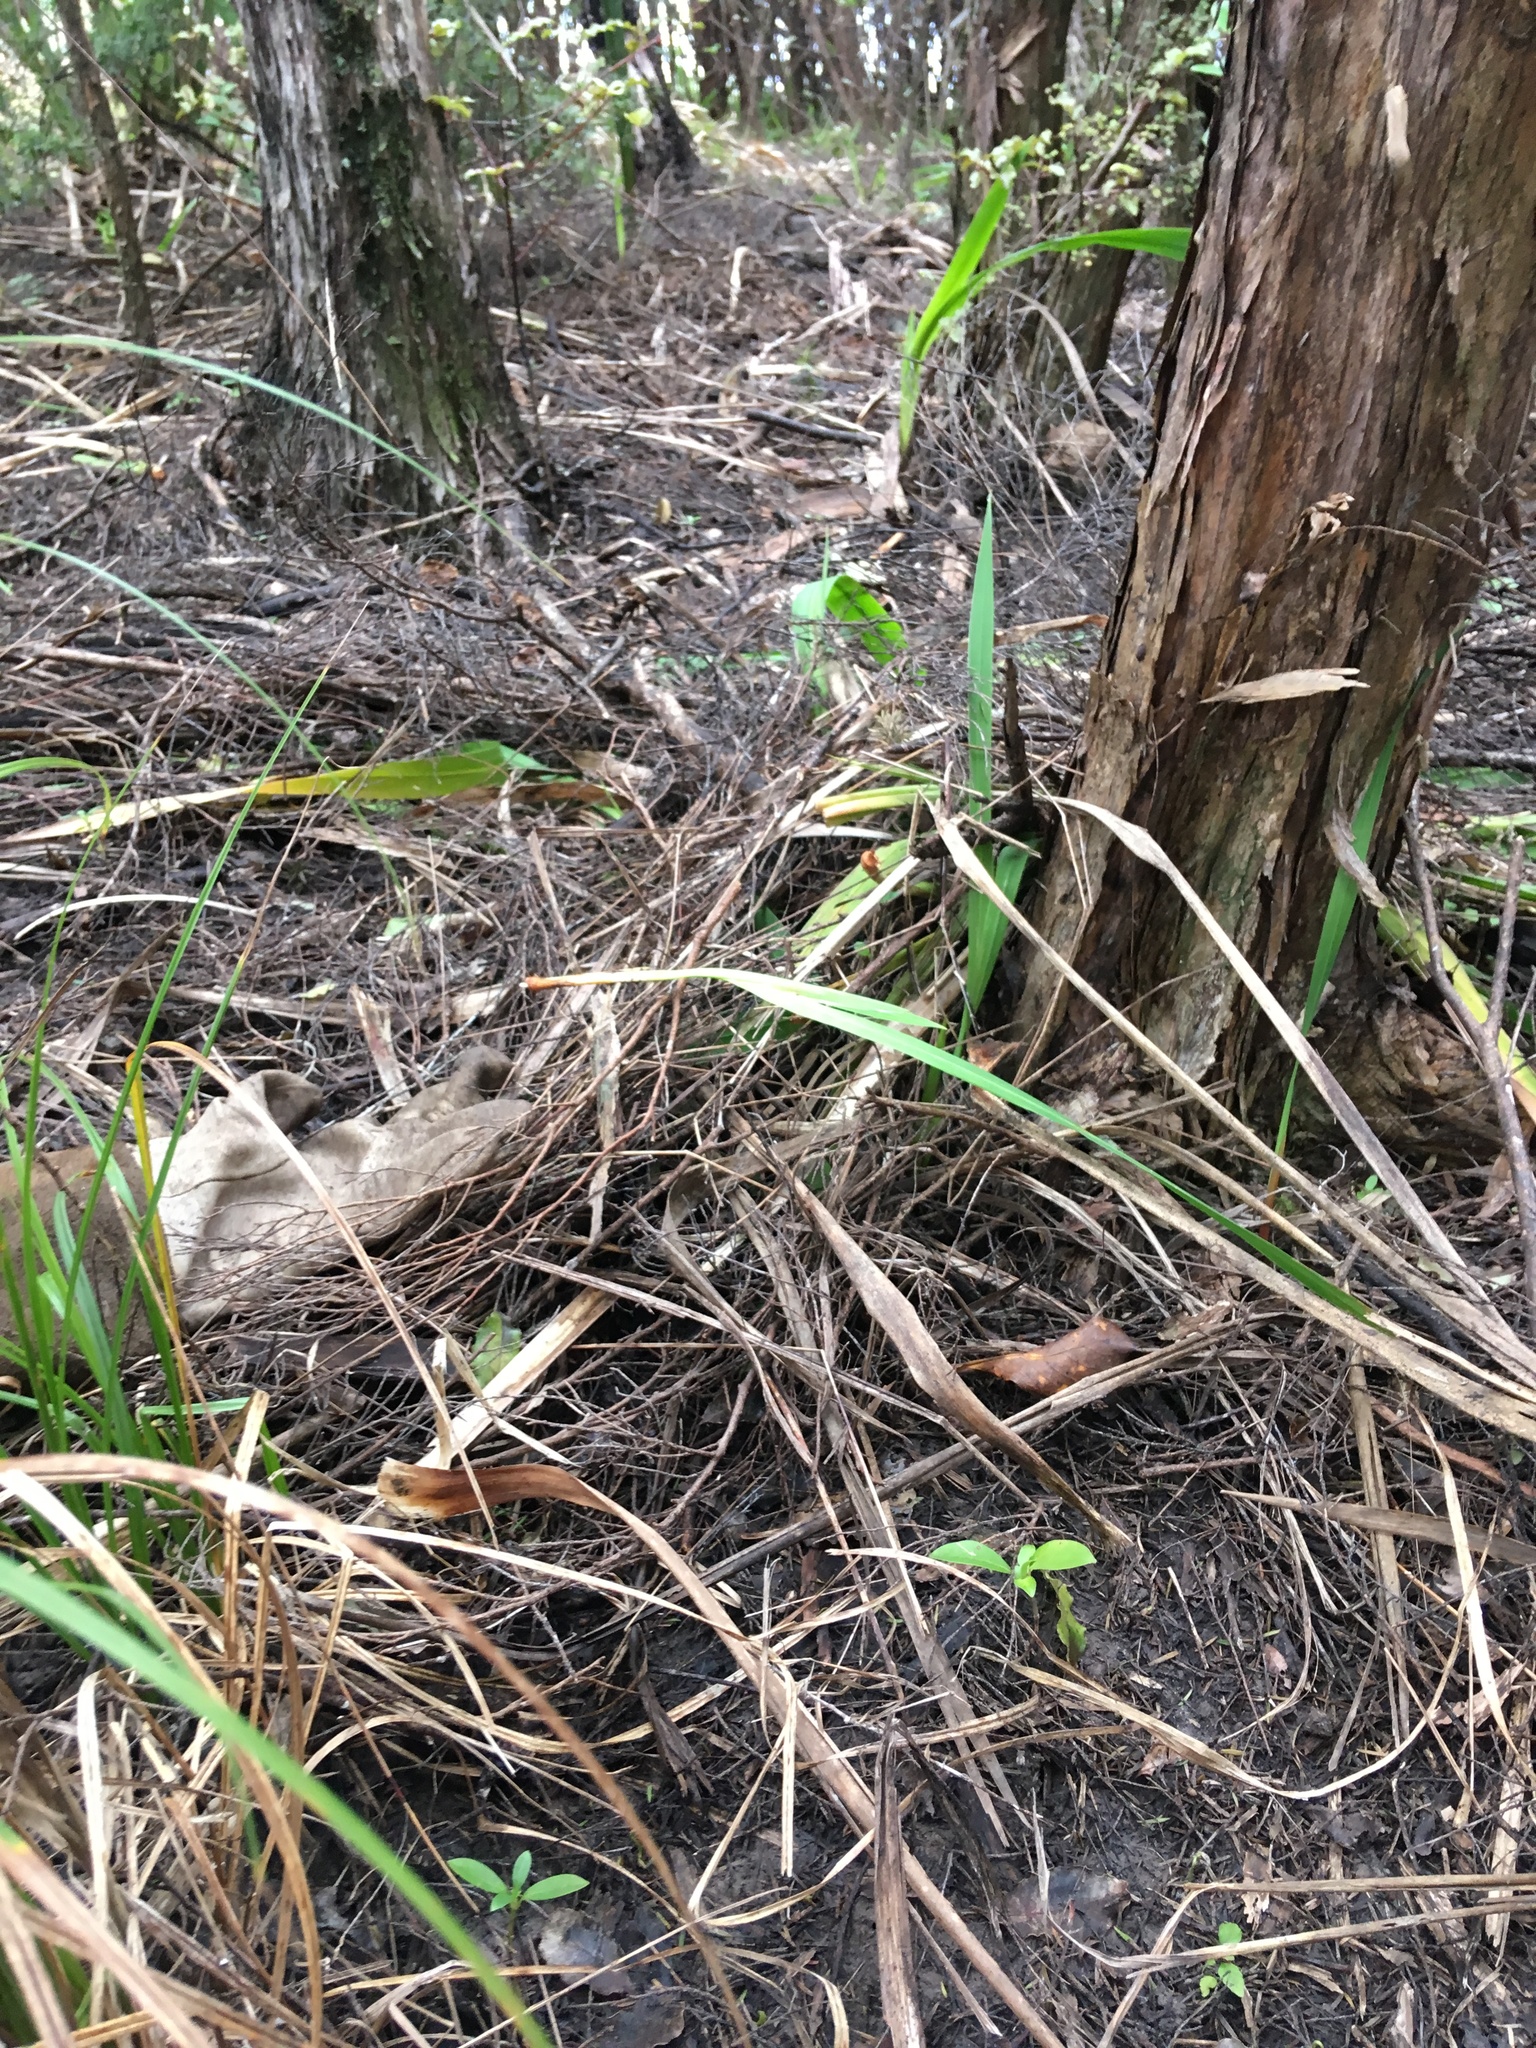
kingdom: Plantae
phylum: Tracheophyta
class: Magnoliopsida
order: Gentianales
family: Rubiaceae
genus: Coprosma
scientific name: Coprosma robusta
